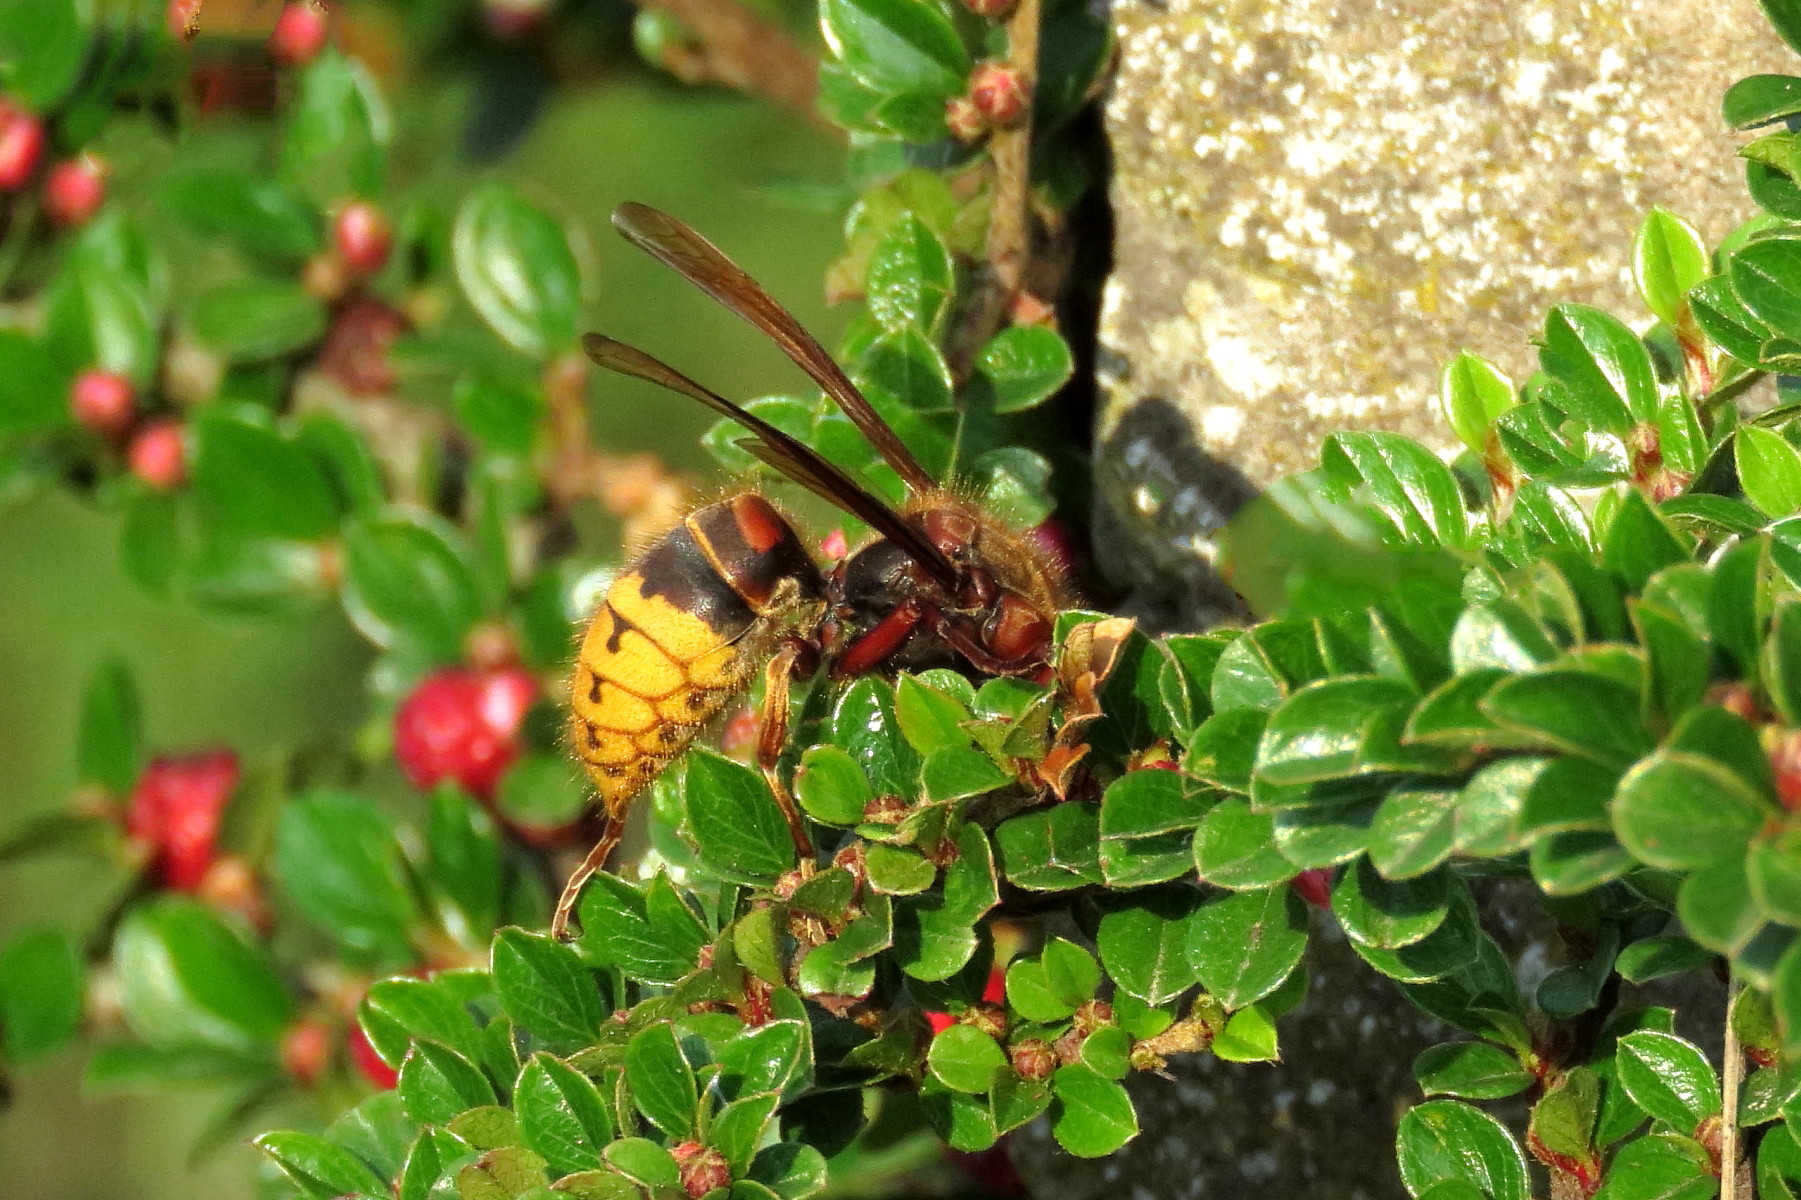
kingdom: Animalia
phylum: Arthropoda
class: Insecta
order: Hymenoptera
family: Vespidae
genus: Vespa
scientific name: Vespa crabro
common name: Hornet
